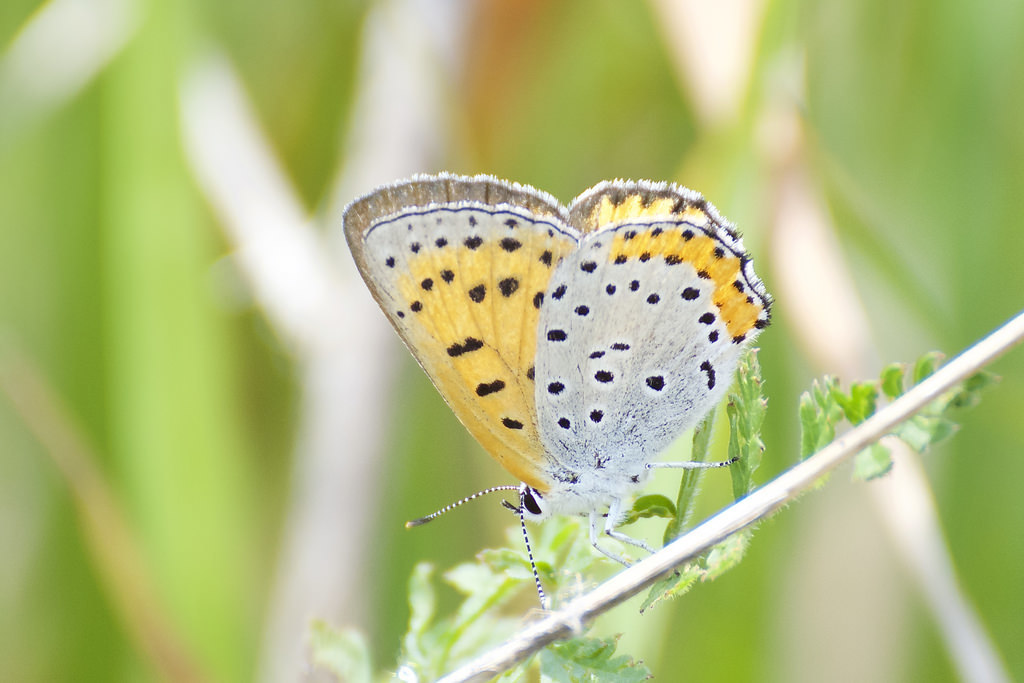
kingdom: Animalia
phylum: Arthropoda
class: Insecta
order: Lepidoptera
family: Lycaenidae
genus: Tharsalea
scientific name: Tharsalea hyllus
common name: Bronze copper
